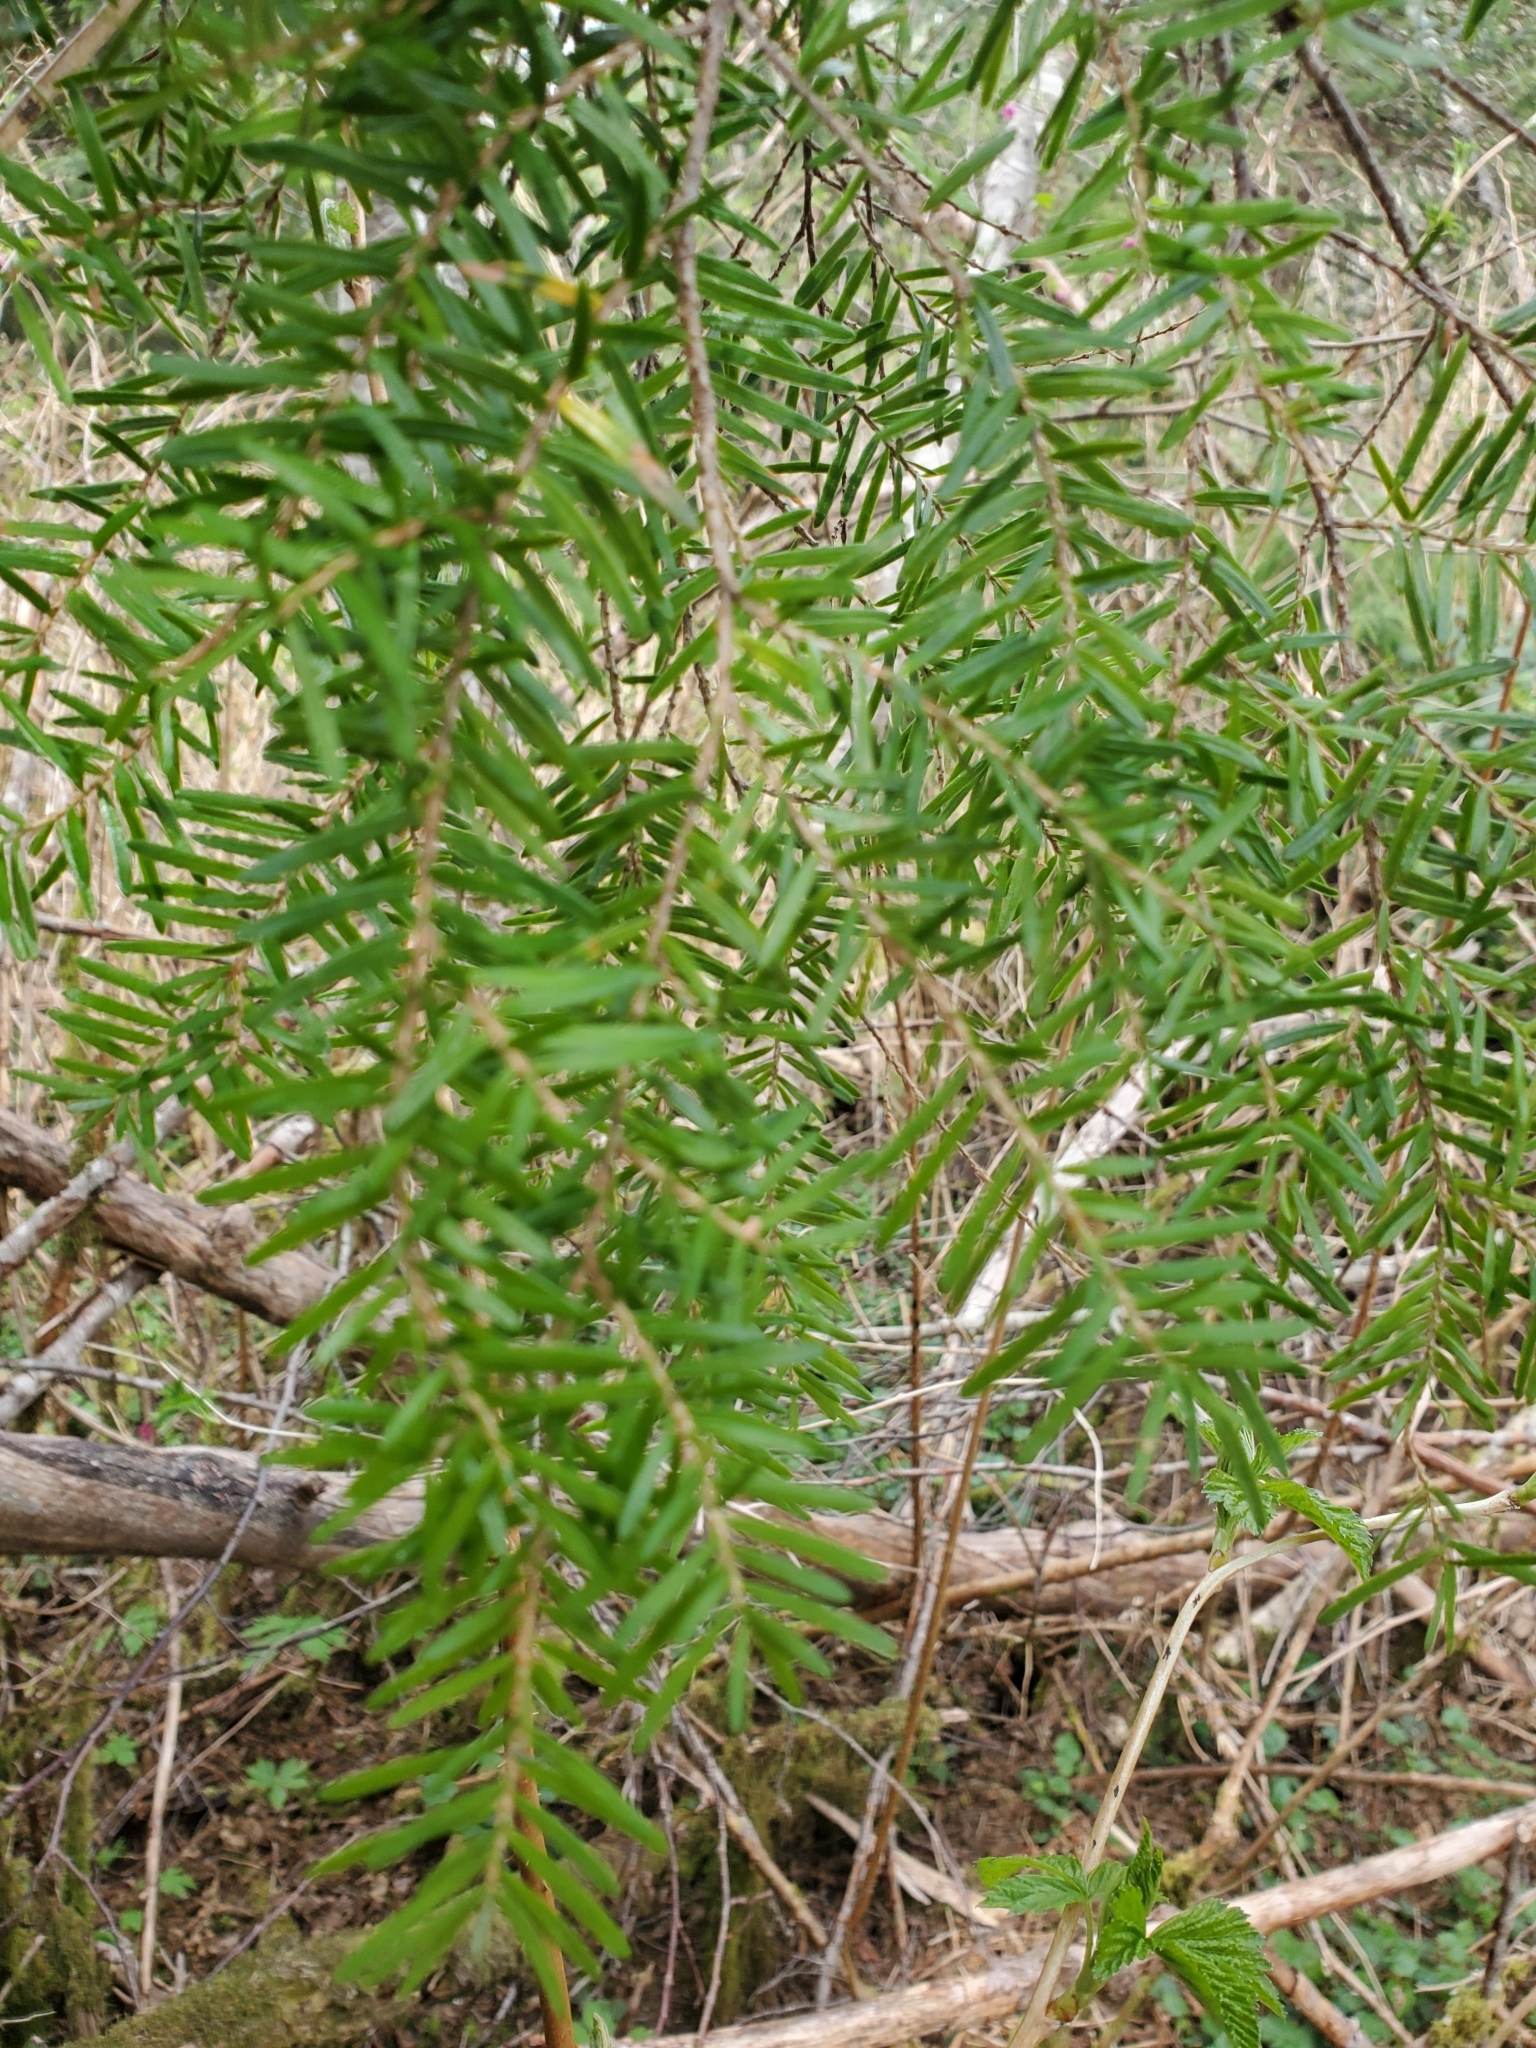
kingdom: Plantae
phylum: Tracheophyta
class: Pinopsida
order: Pinales
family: Pinaceae
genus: Tsuga
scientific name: Tsuga heterophylla
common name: Western hemlock
